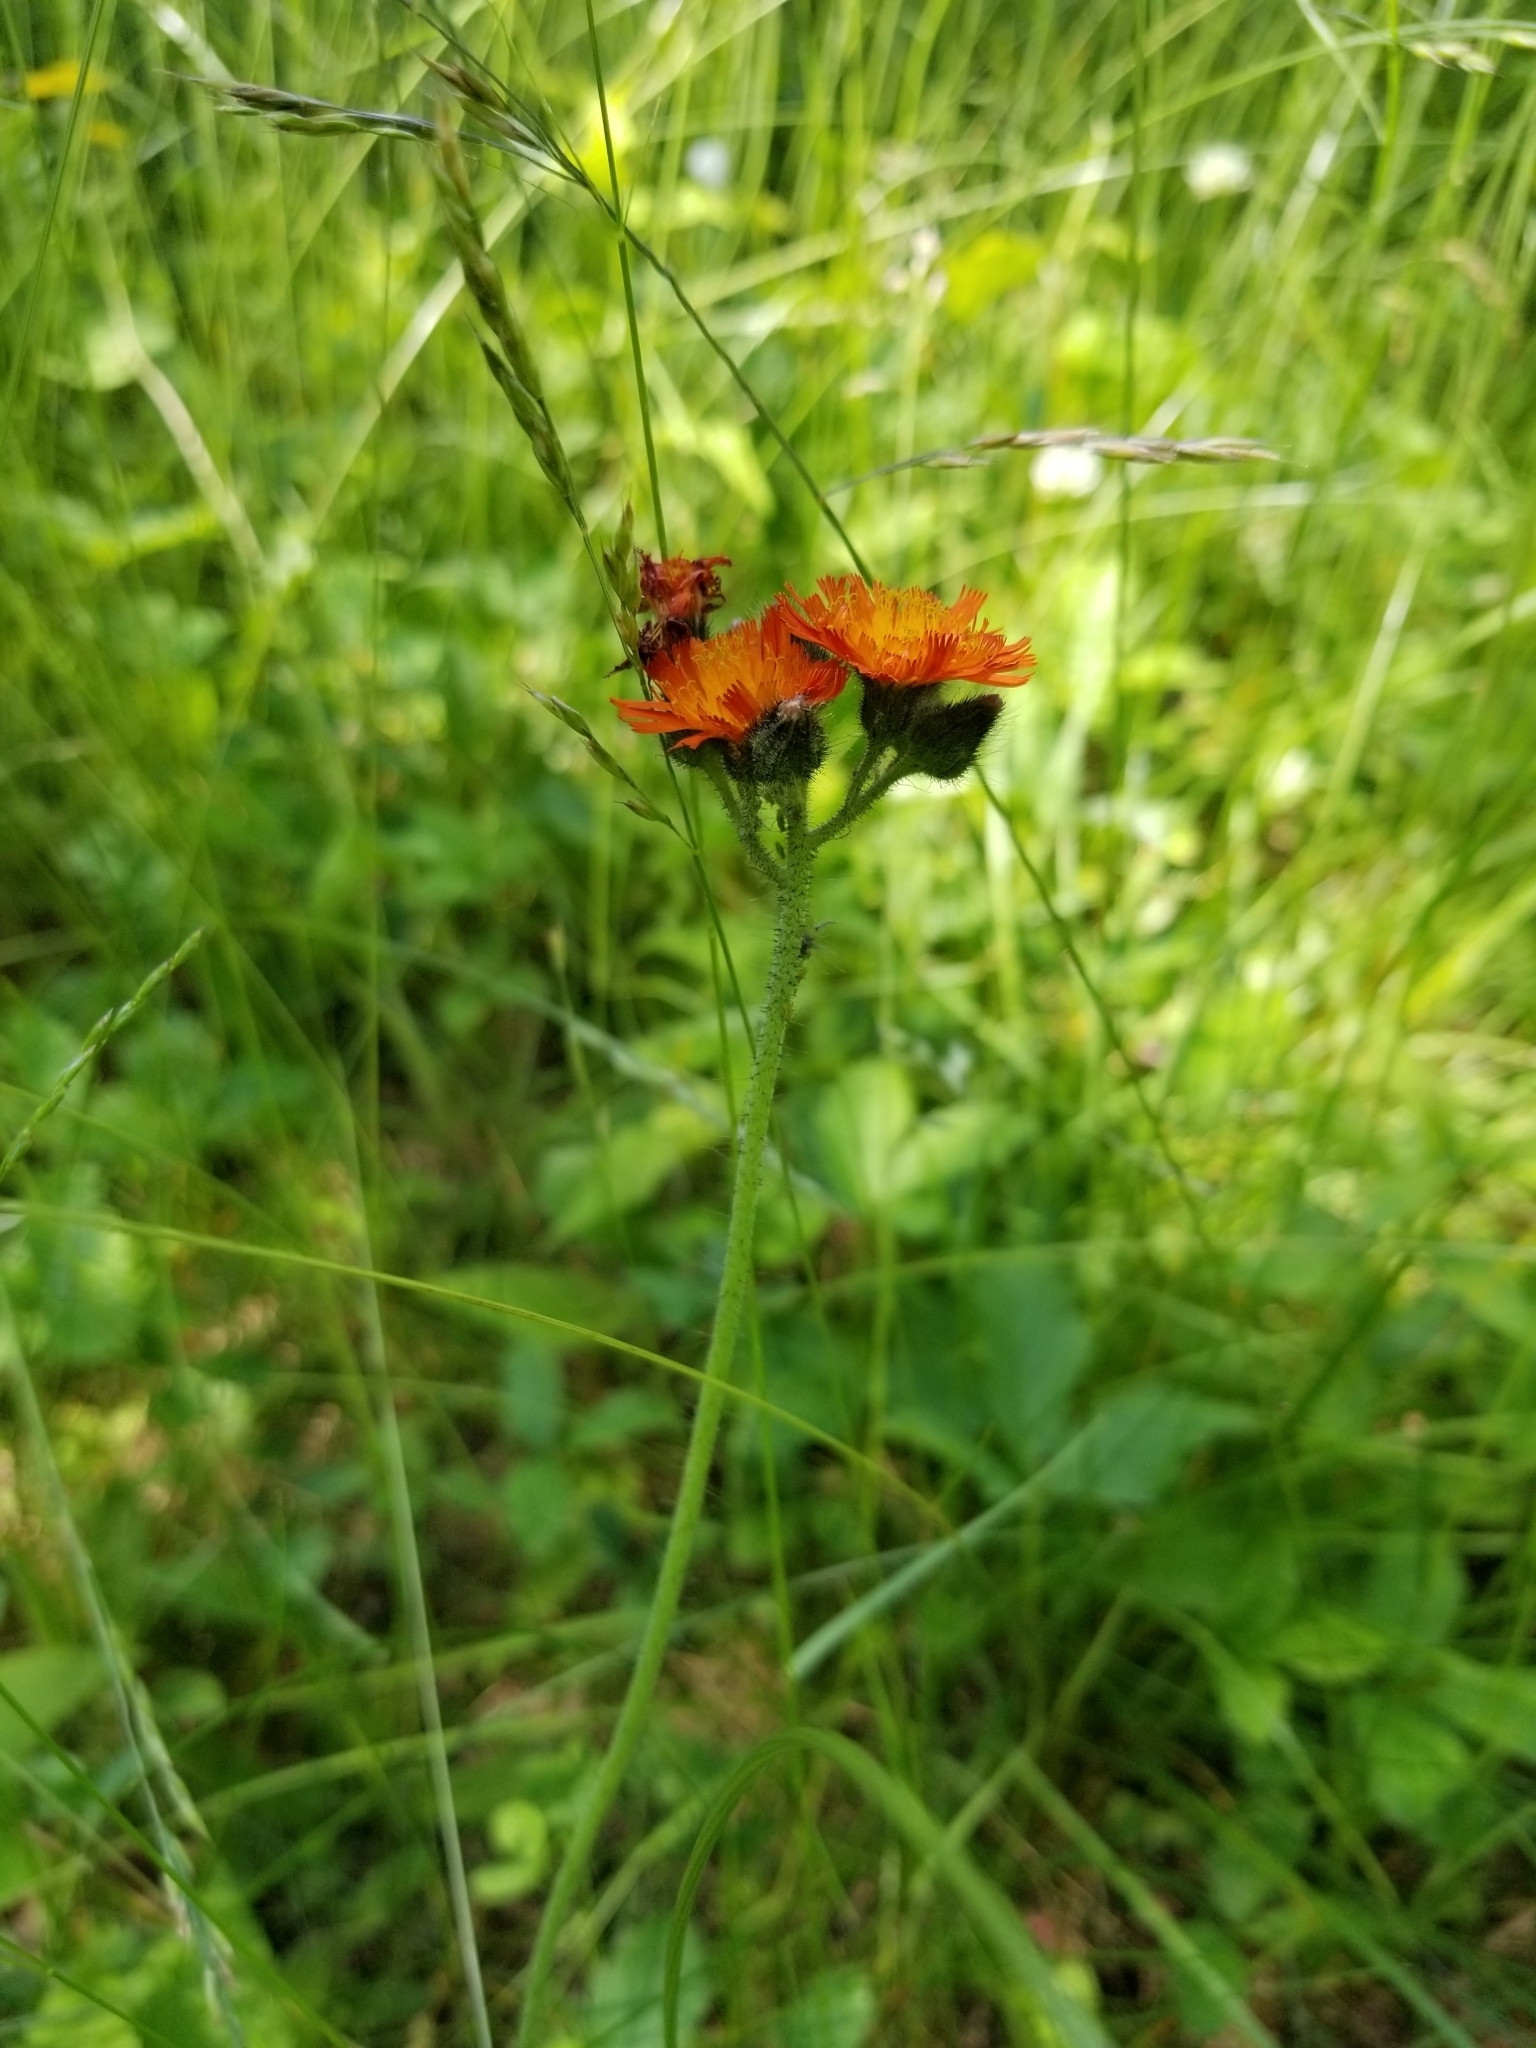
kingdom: Plantae
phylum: Tracheophyta
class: Magnoliopsida
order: Asterales
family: Asteraceae
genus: Pilosella
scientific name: Pilosella aurantiaca
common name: Fox-and-cubs
